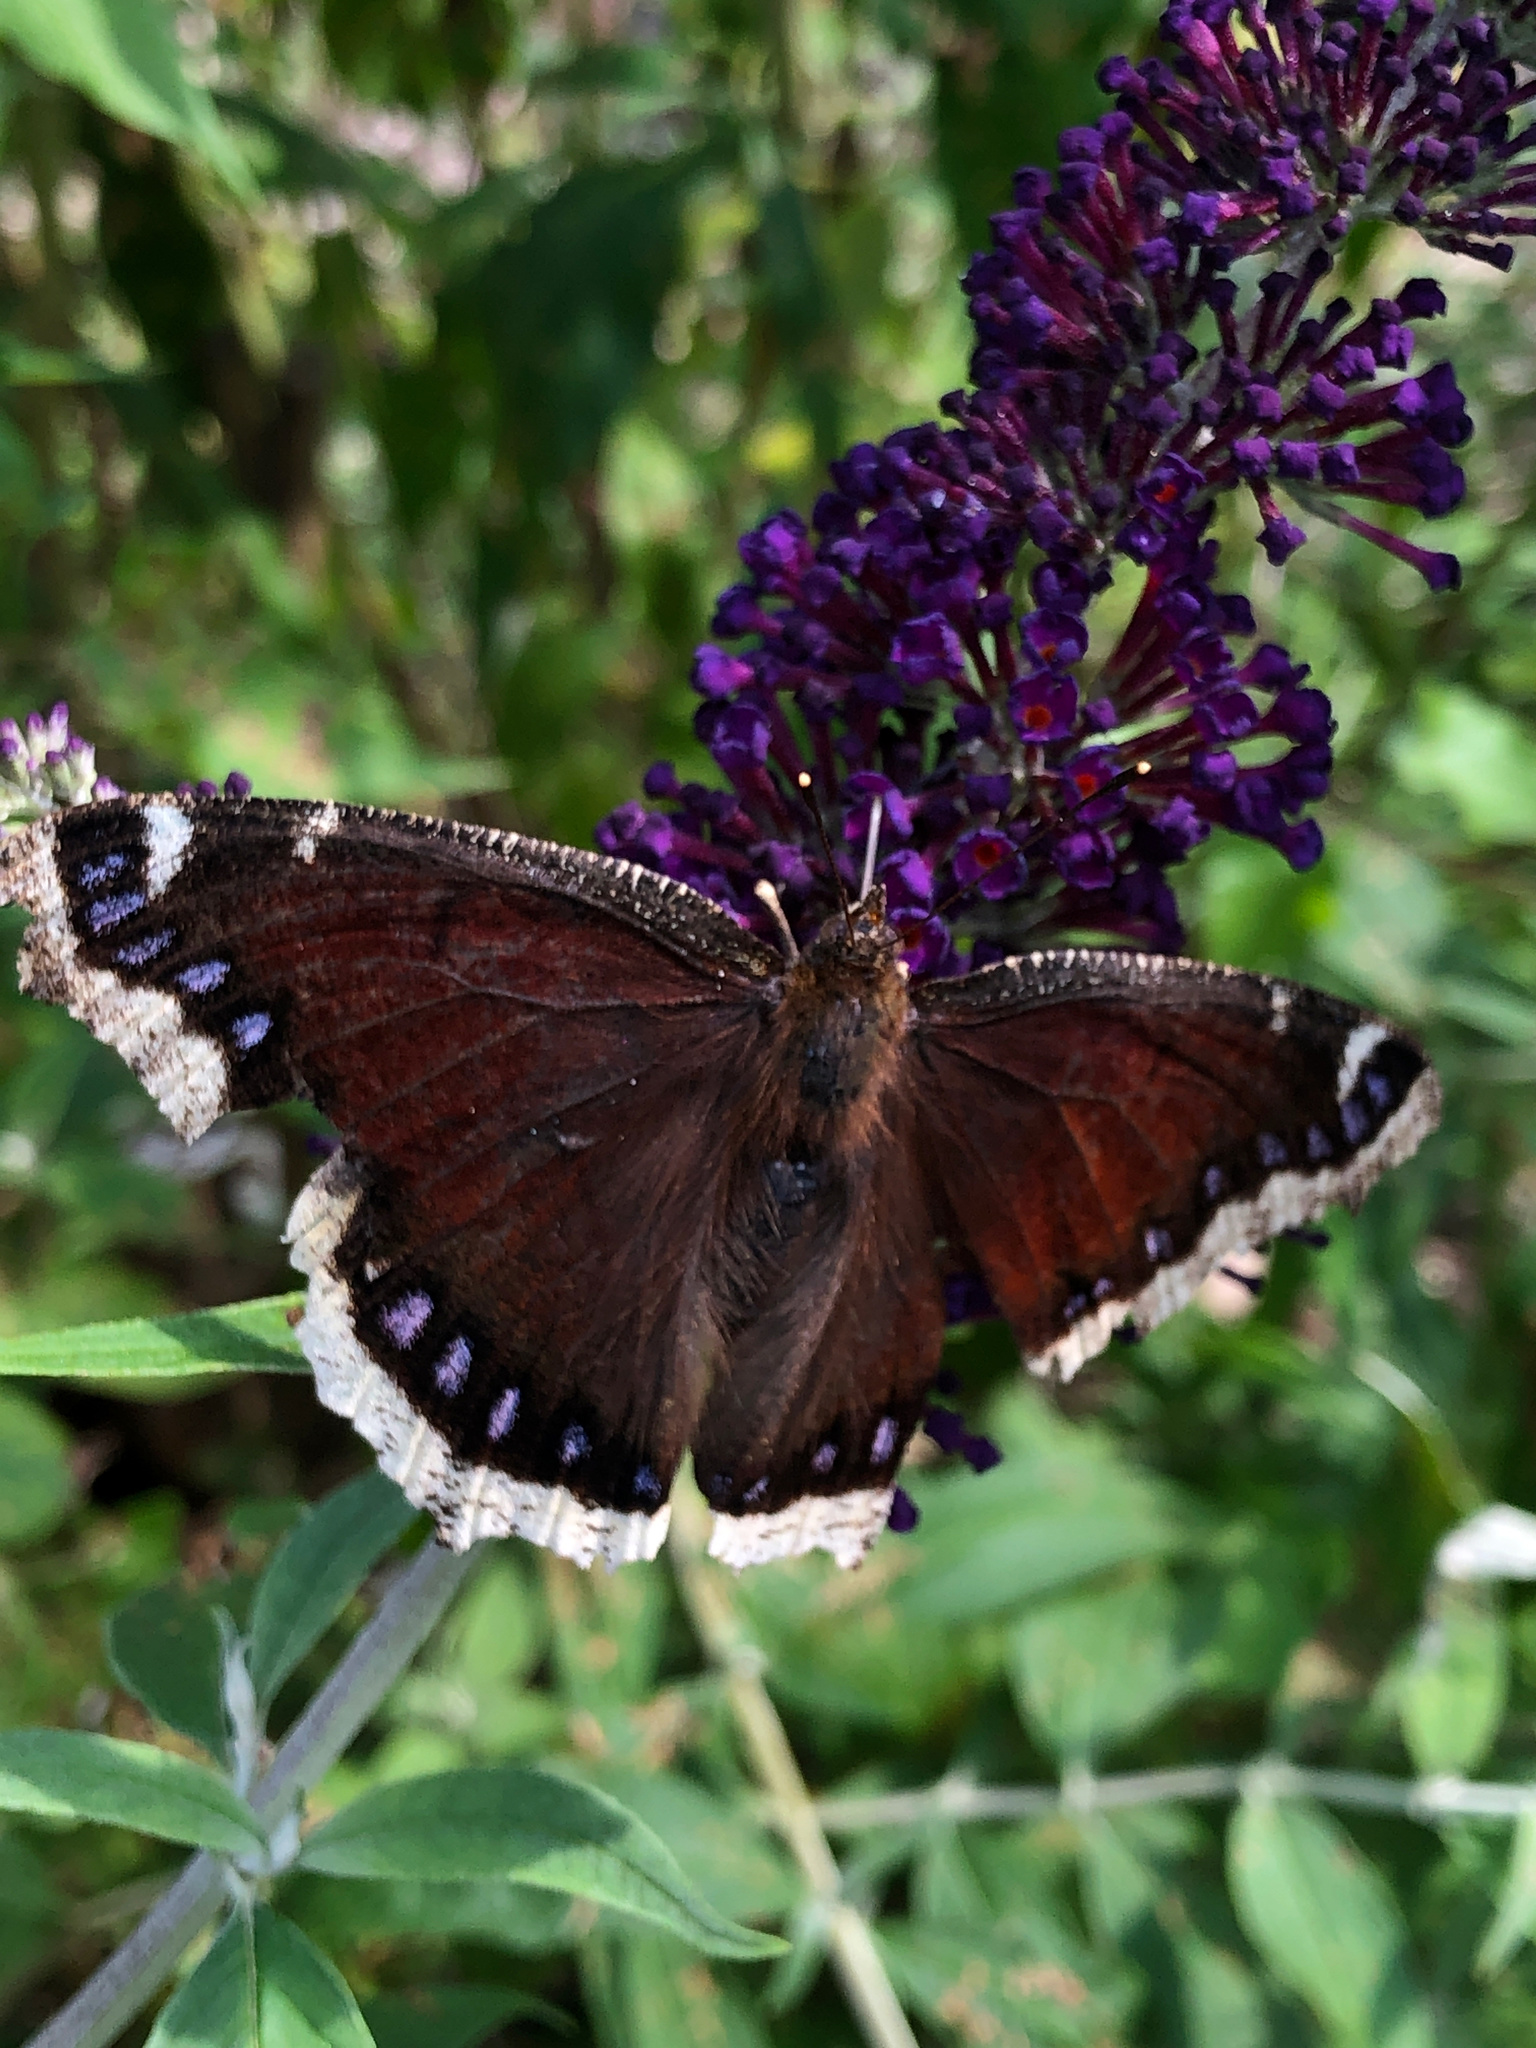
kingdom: Animalia
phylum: Arthropoda
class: Insecta
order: Lepidoptera
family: Nymphalidae
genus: Nymphalis
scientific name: Nymphalis antiopa
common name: Camberwell beauty
